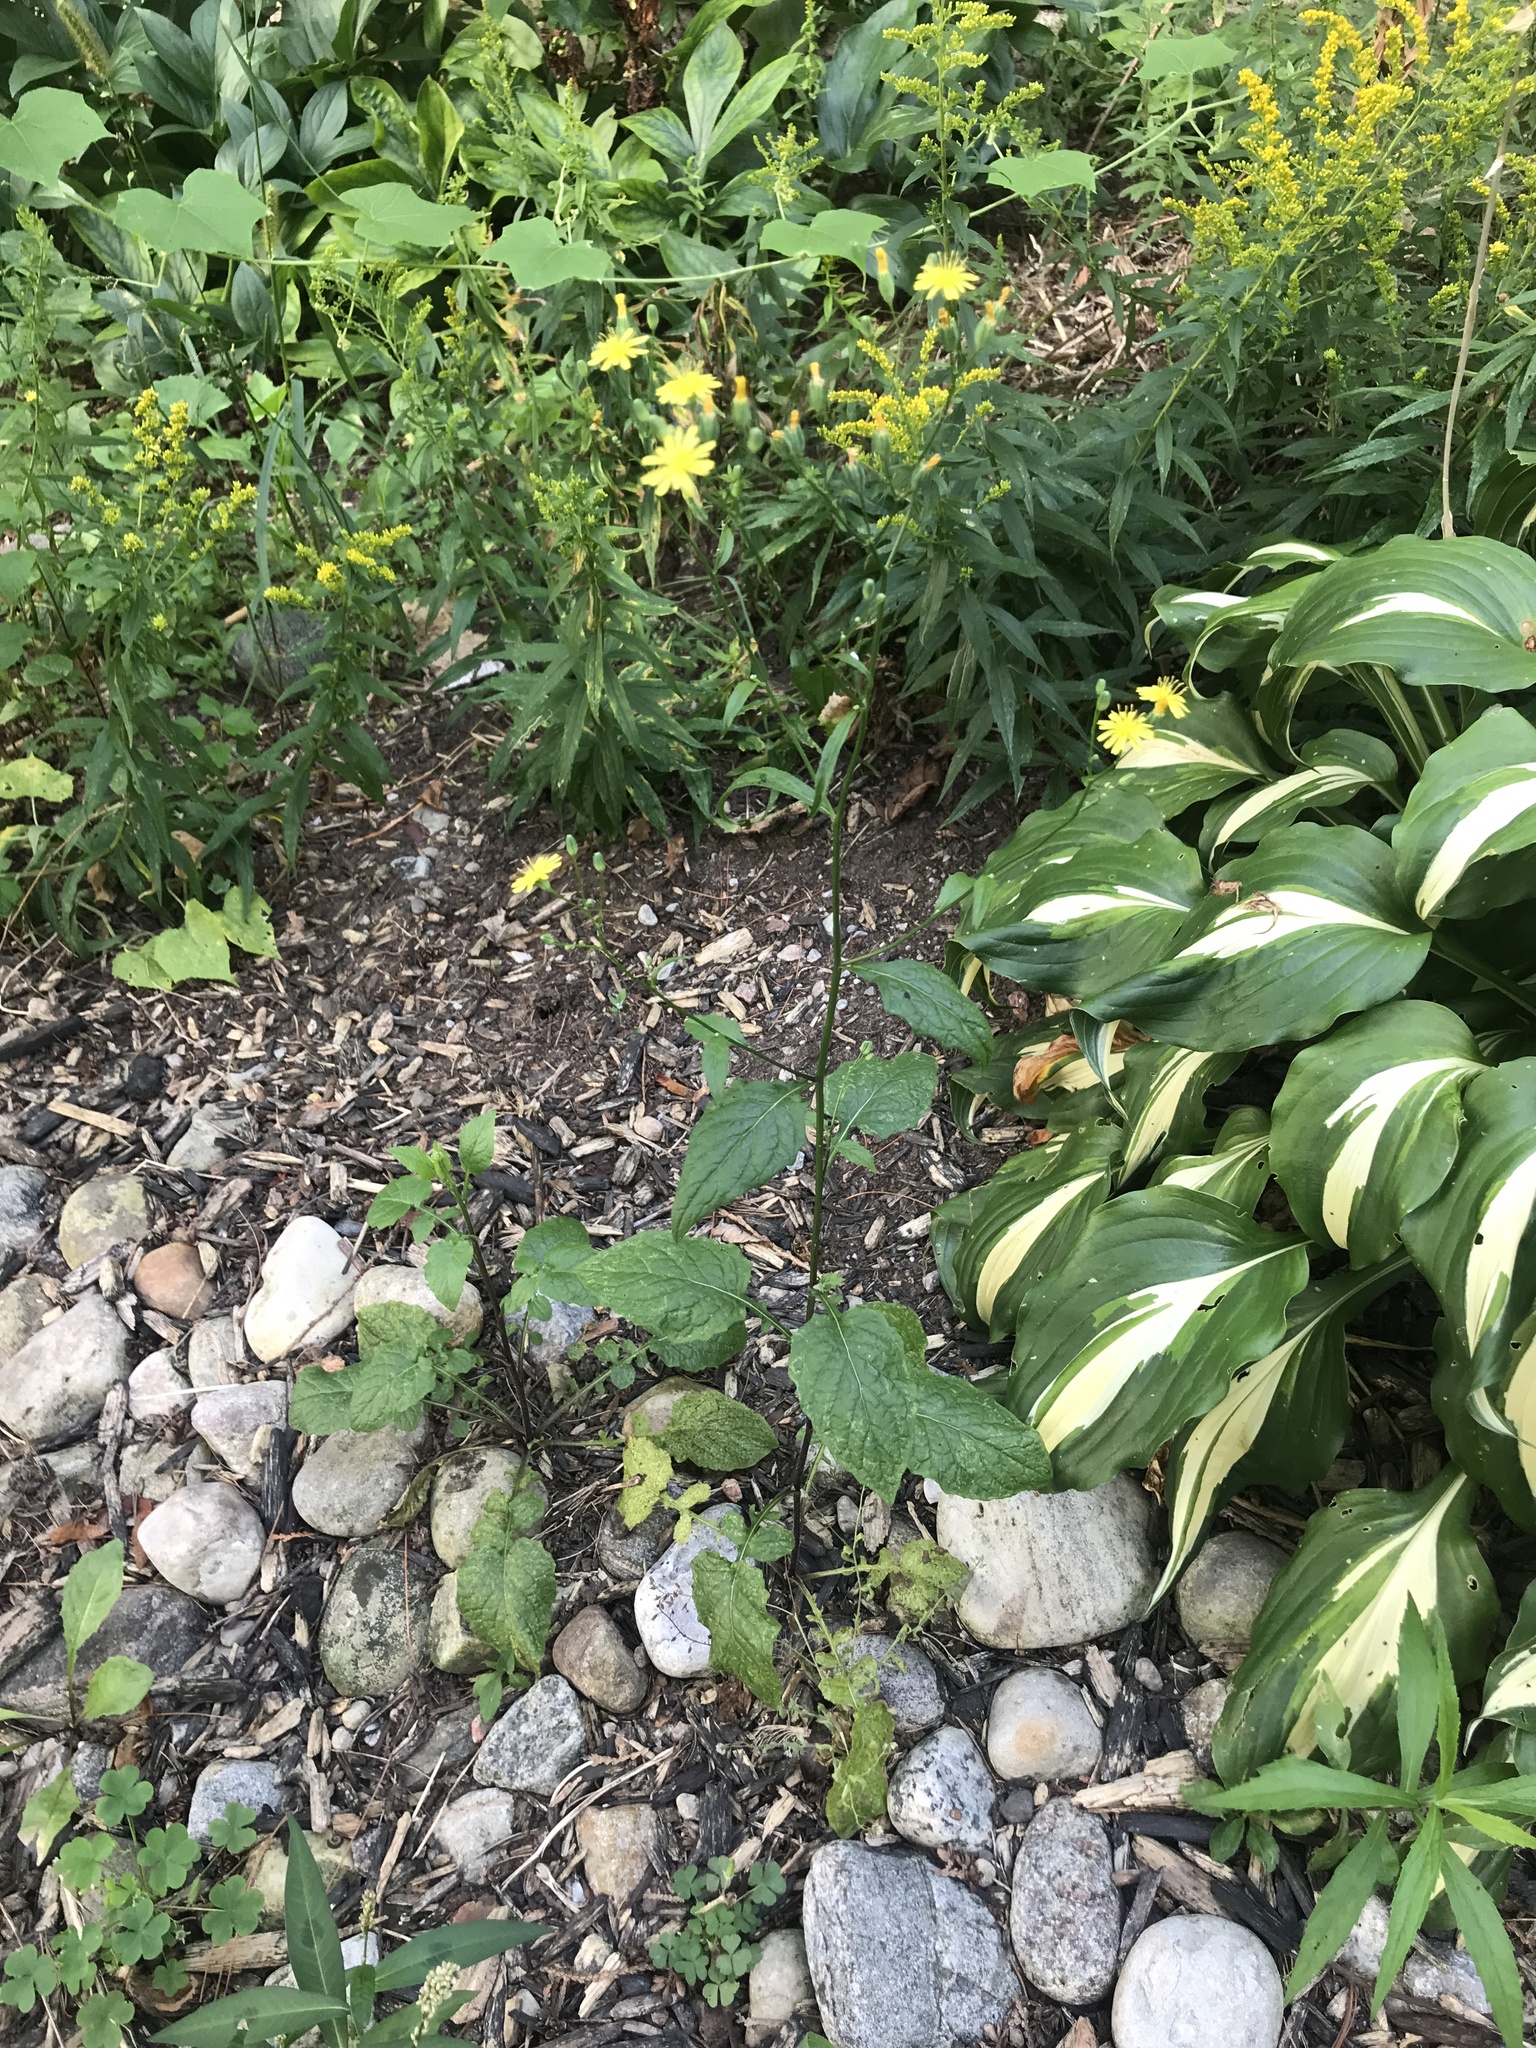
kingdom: Plantae
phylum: Tracheophyta
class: Magnoliopsida
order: Asterales
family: Asteraceae
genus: Lapsana
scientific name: Lapsana communis
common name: Nipplewort
